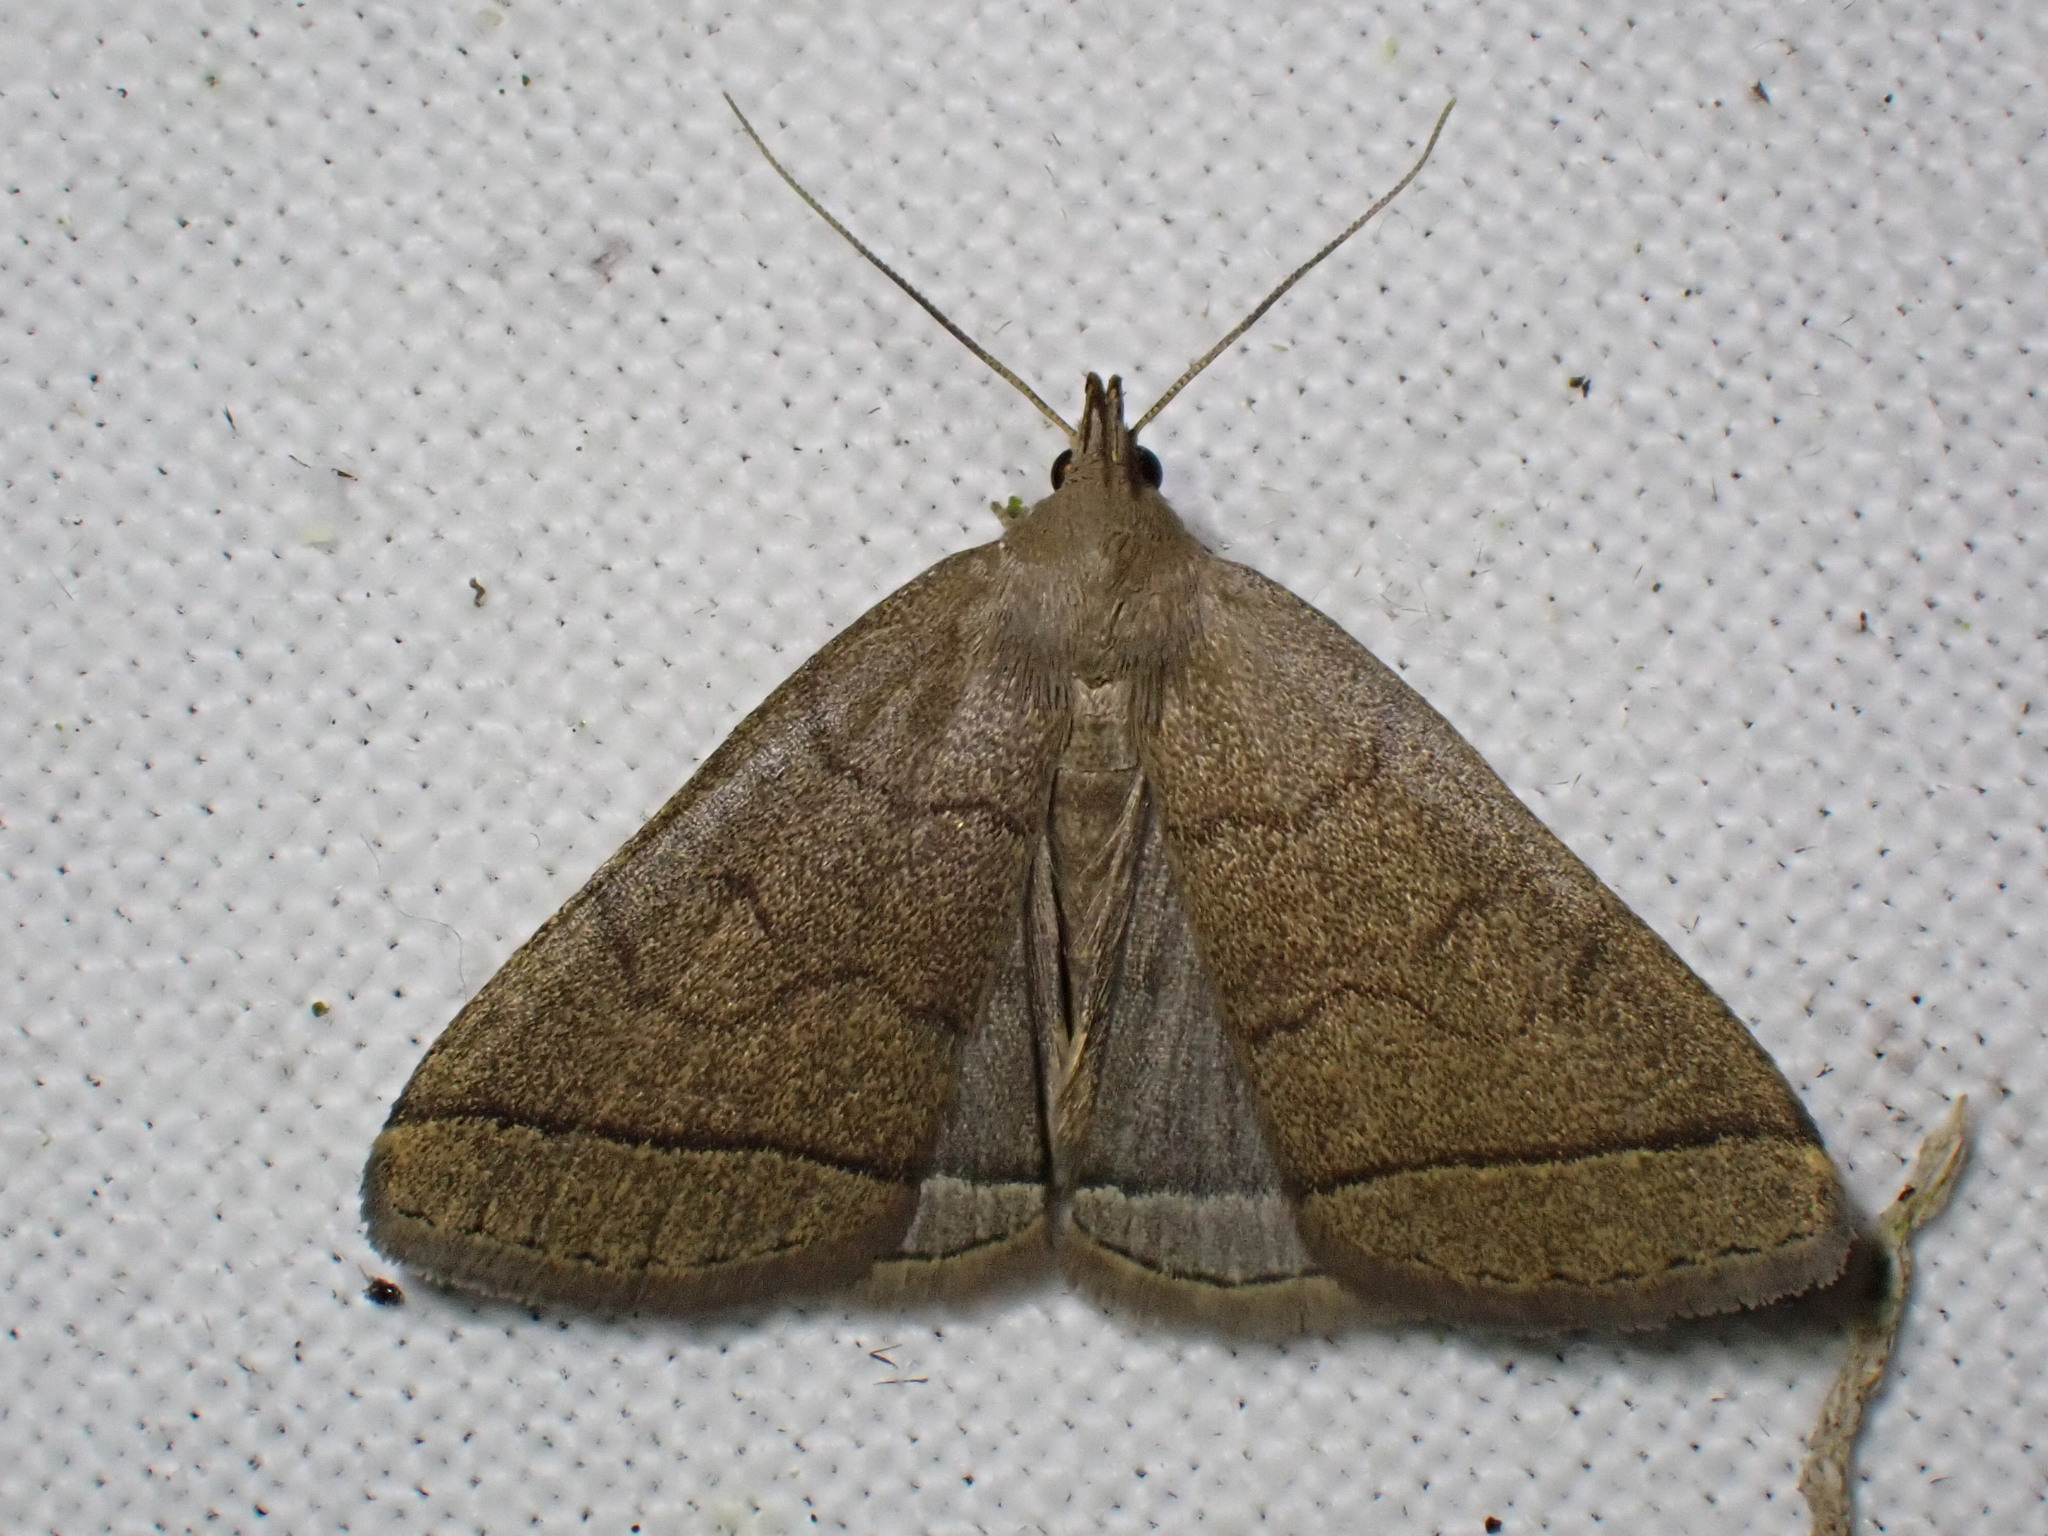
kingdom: Animalia
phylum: Arthropoda
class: Insecta
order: Lepidoptera
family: Erebidae
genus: Herminia
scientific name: Herminia tarsipennalis
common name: Fan-foot
